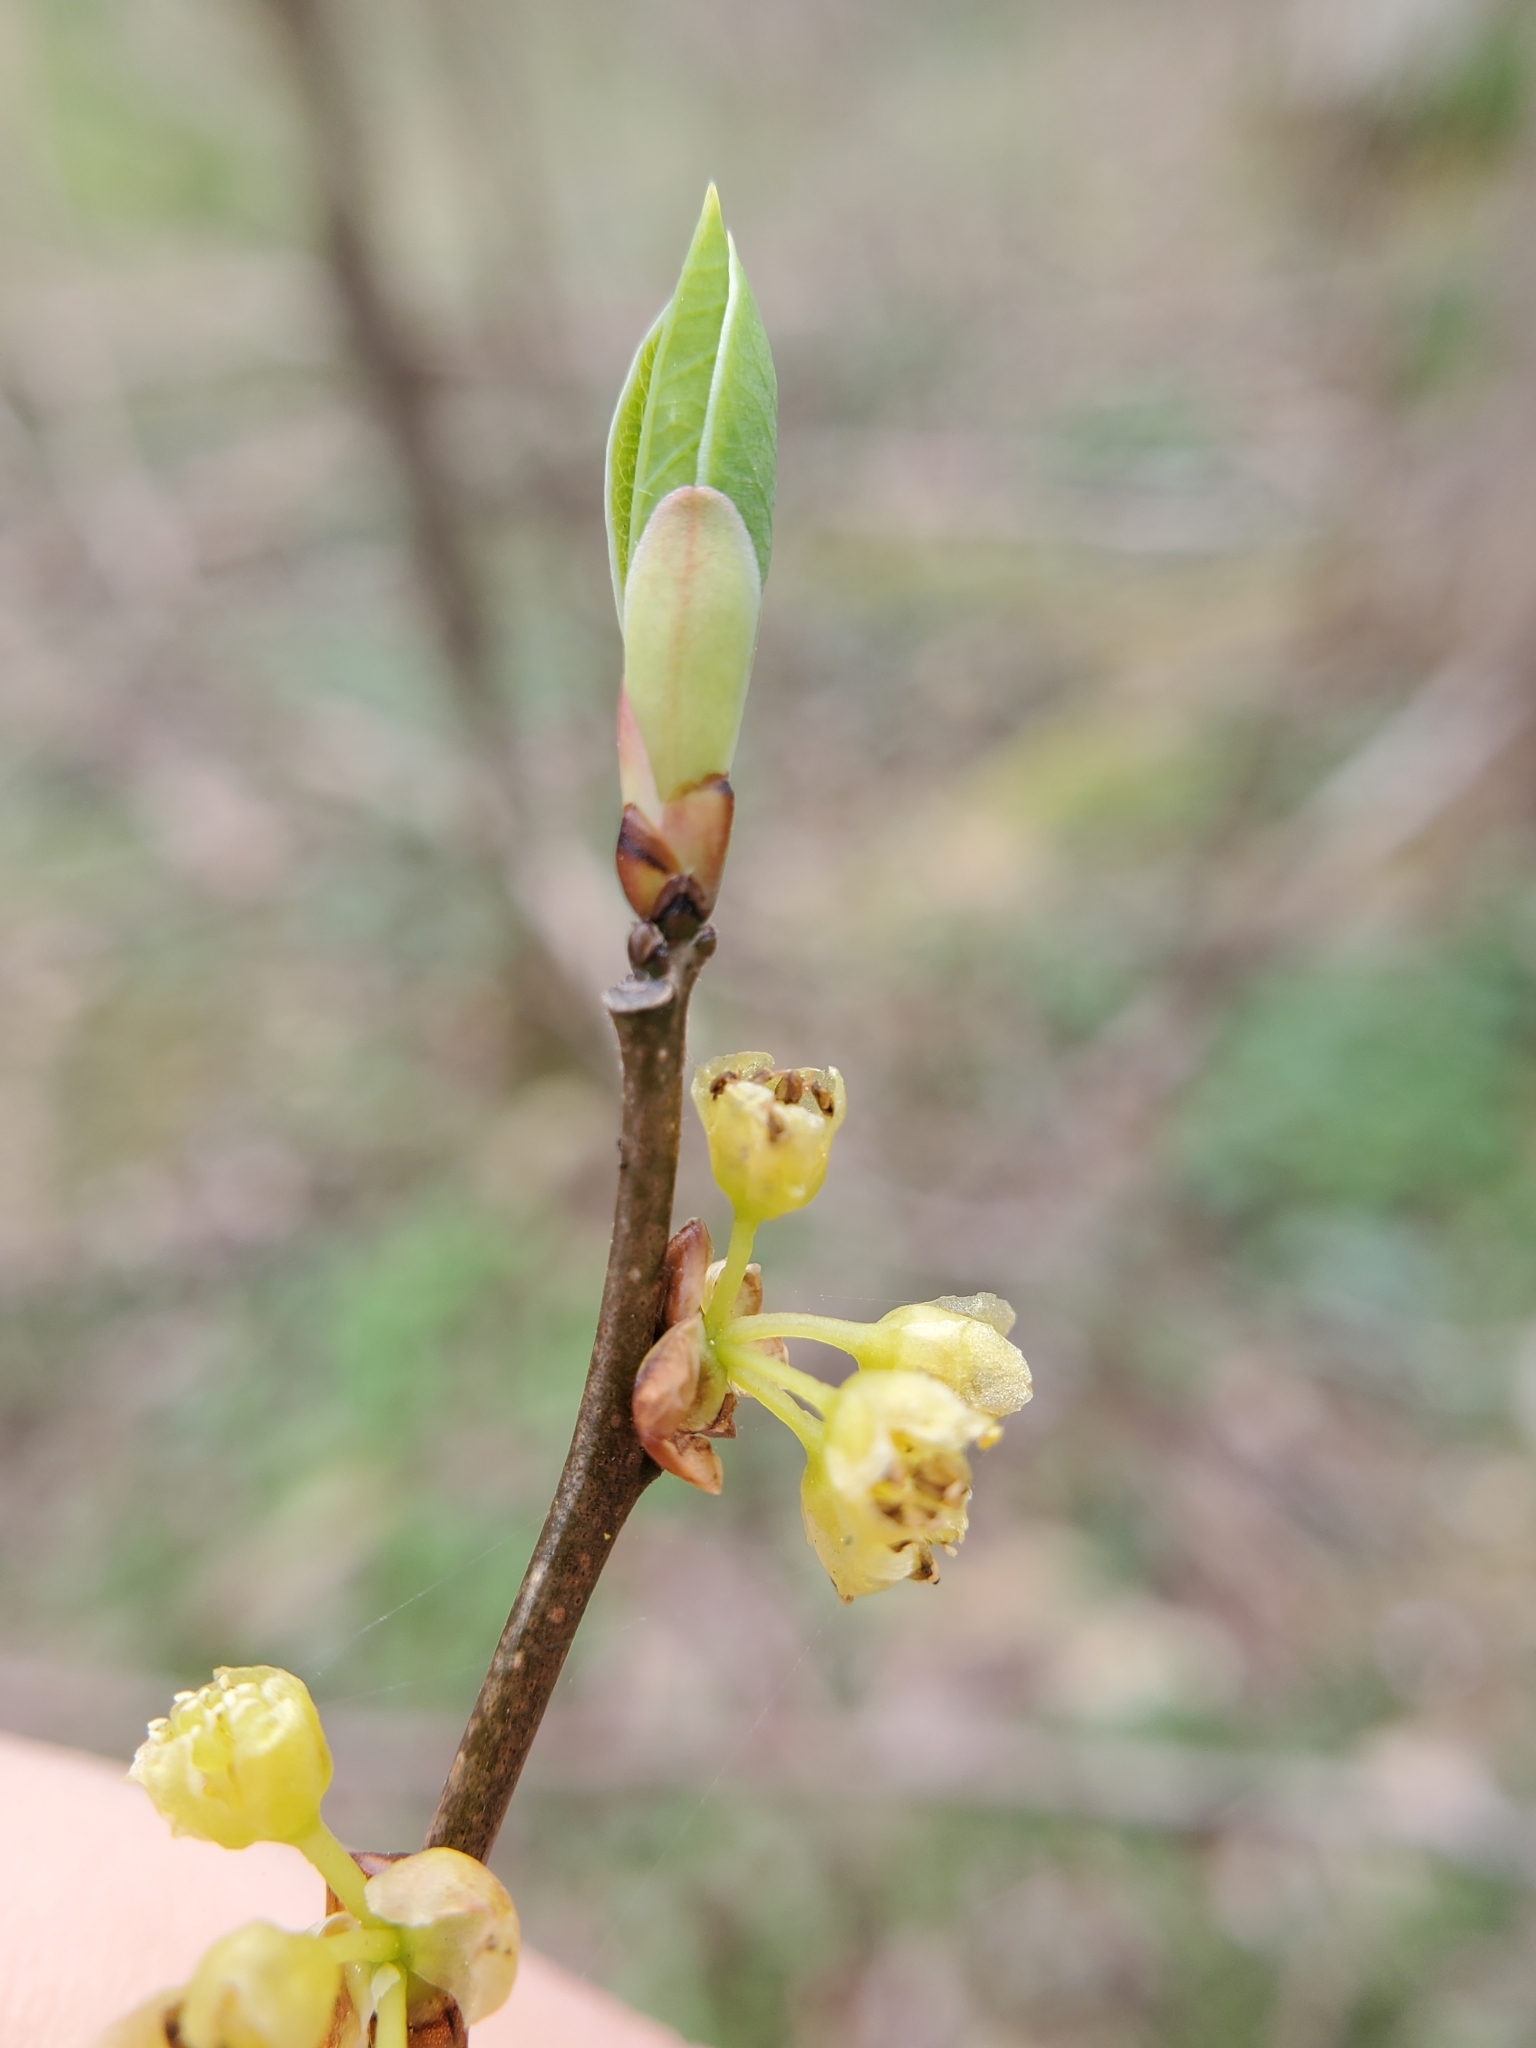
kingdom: Plantae
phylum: Tracheophyta
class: Magnoliopsida
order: Laurales
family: Lauraceae
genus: Lindera
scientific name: Lindera benzoin
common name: Spicebush
